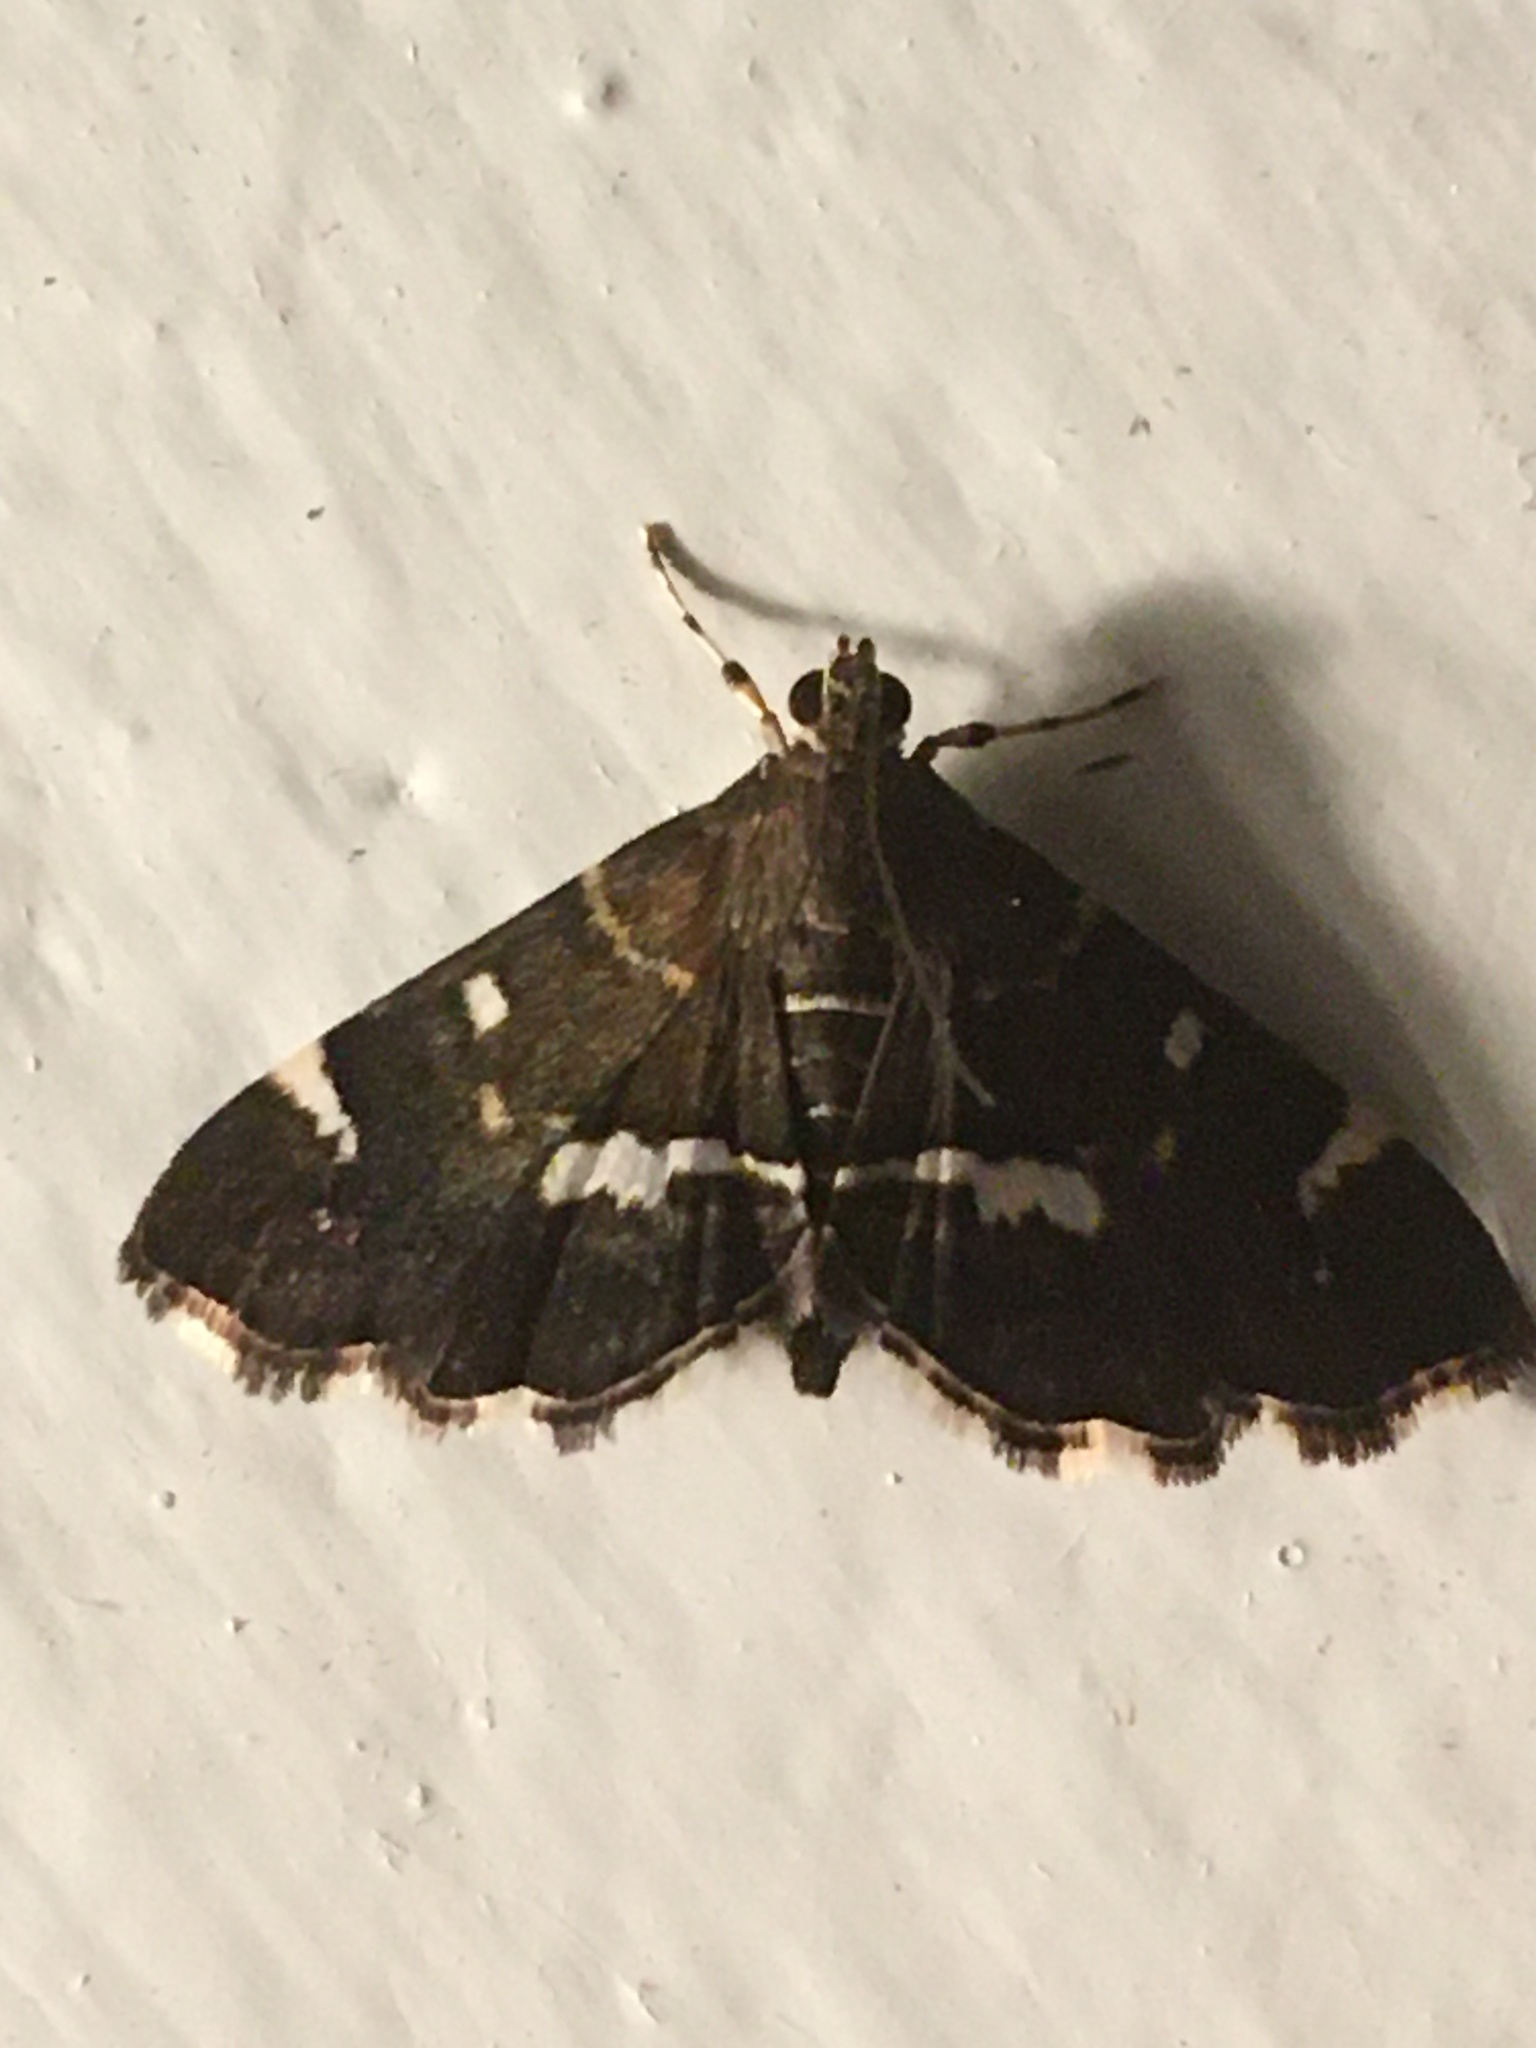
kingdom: Animalia
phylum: Arthropoda
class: Insecta
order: Lepidoptera
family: Crambidae
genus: Hymenia
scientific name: Hymenia perspectalis
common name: Spotted beet webworm
